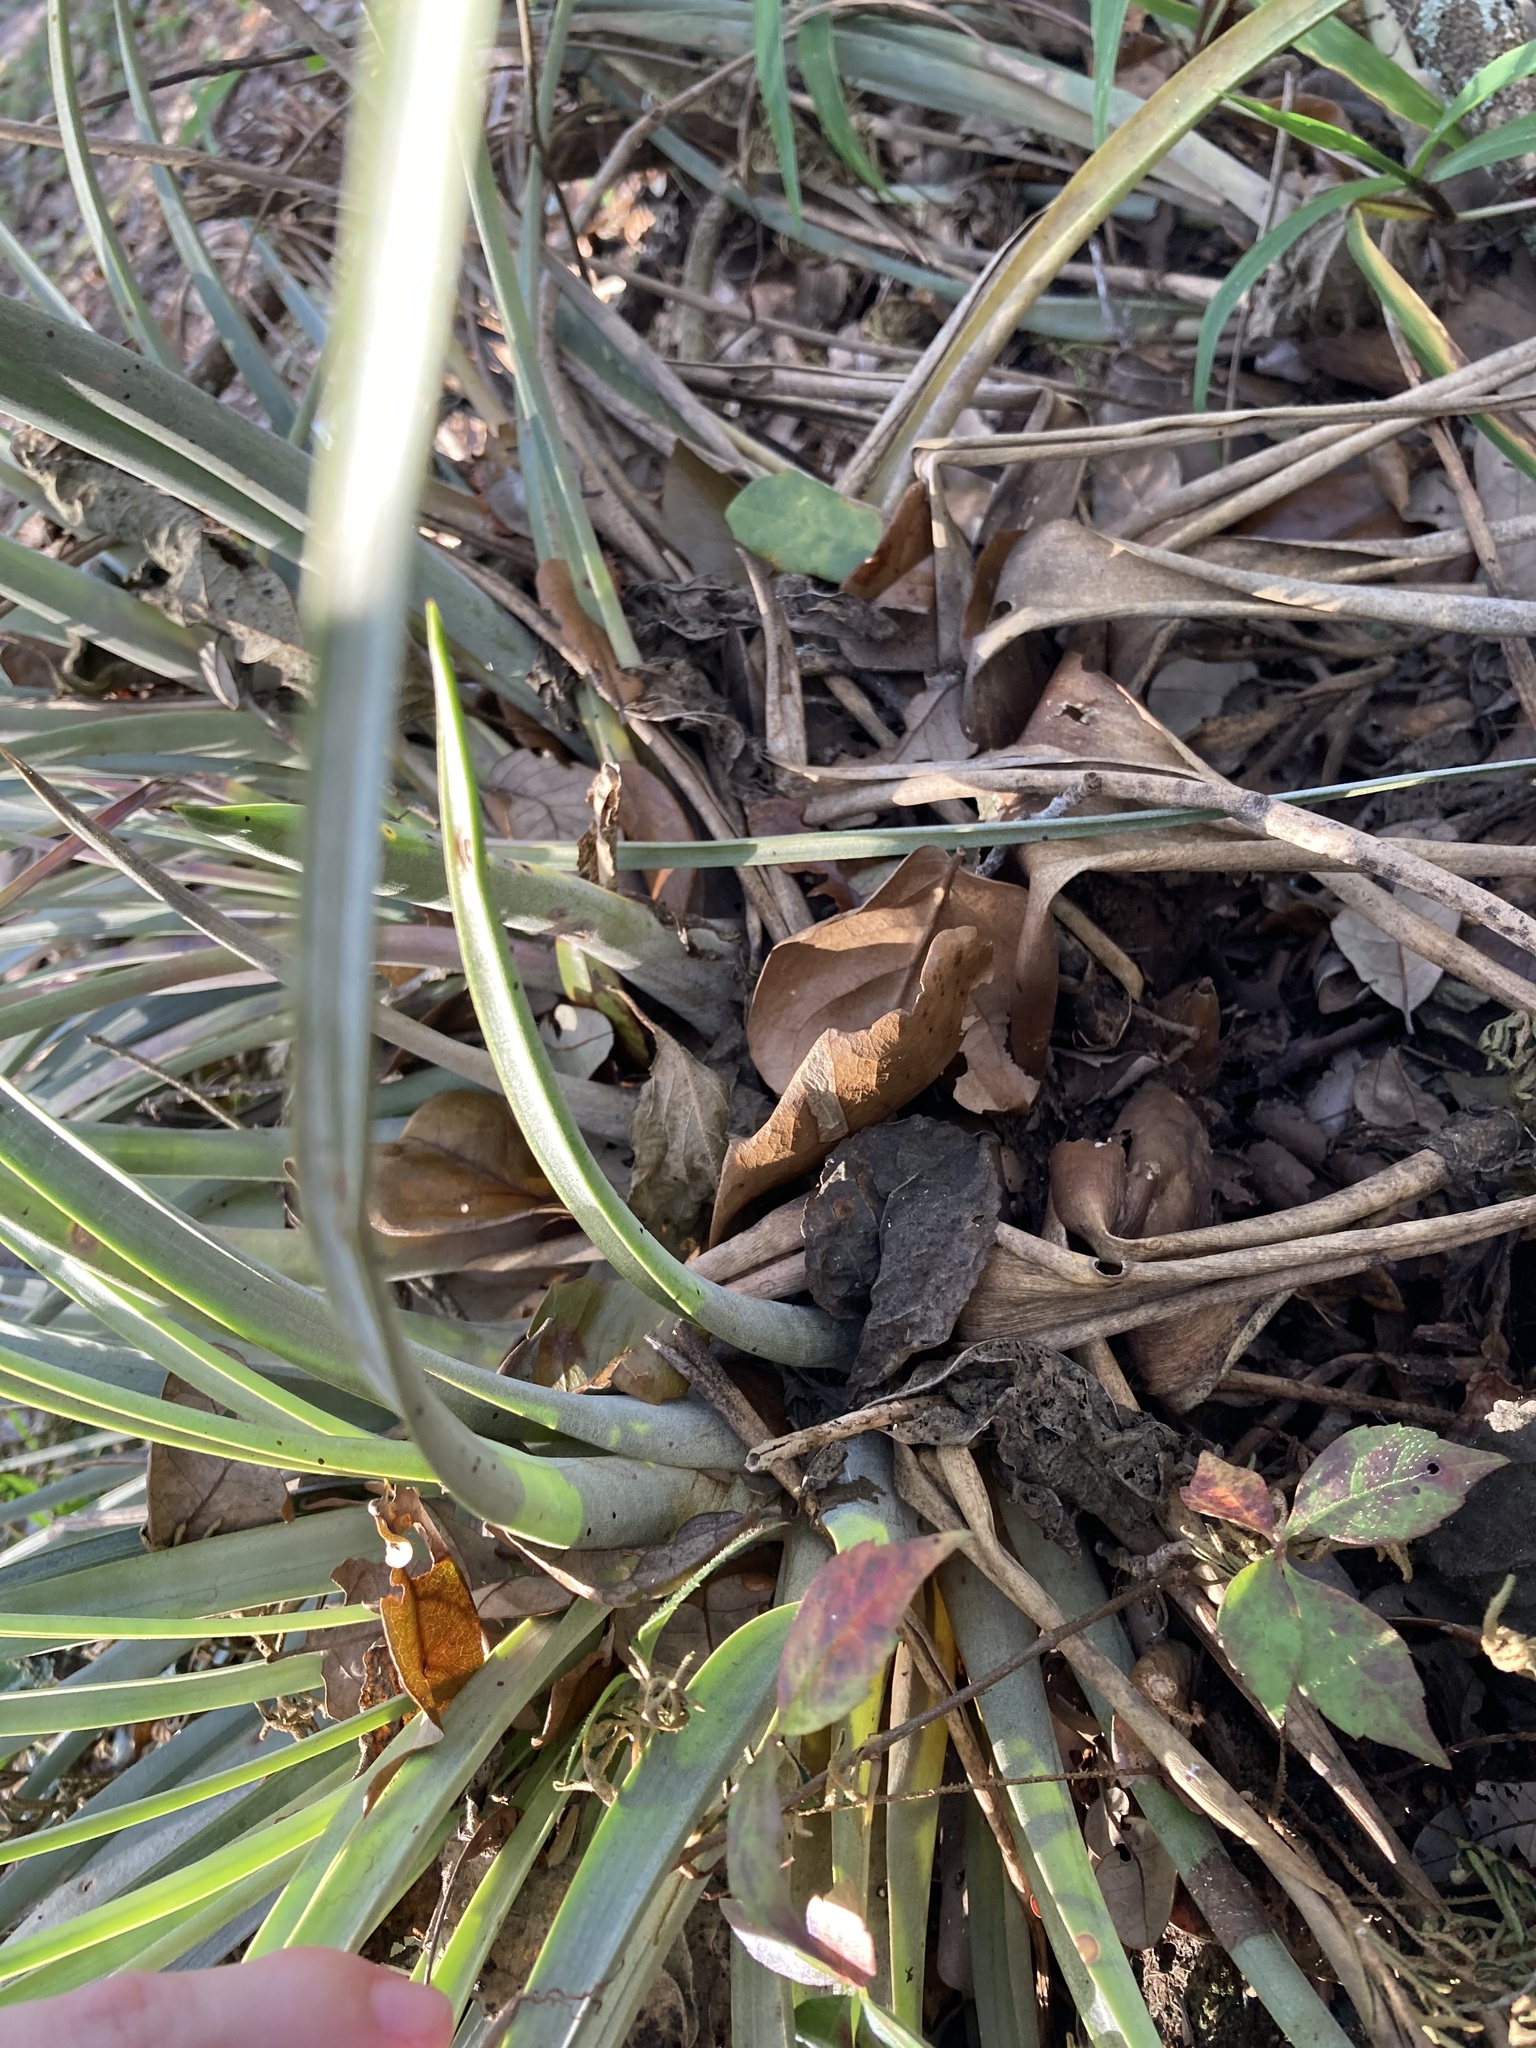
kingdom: Plantae
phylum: Tracheophyta
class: Liliopsida
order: Poales
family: Bromeliaceae
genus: Tillandsia
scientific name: Tillandsia fasciculata
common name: Giant airplant
